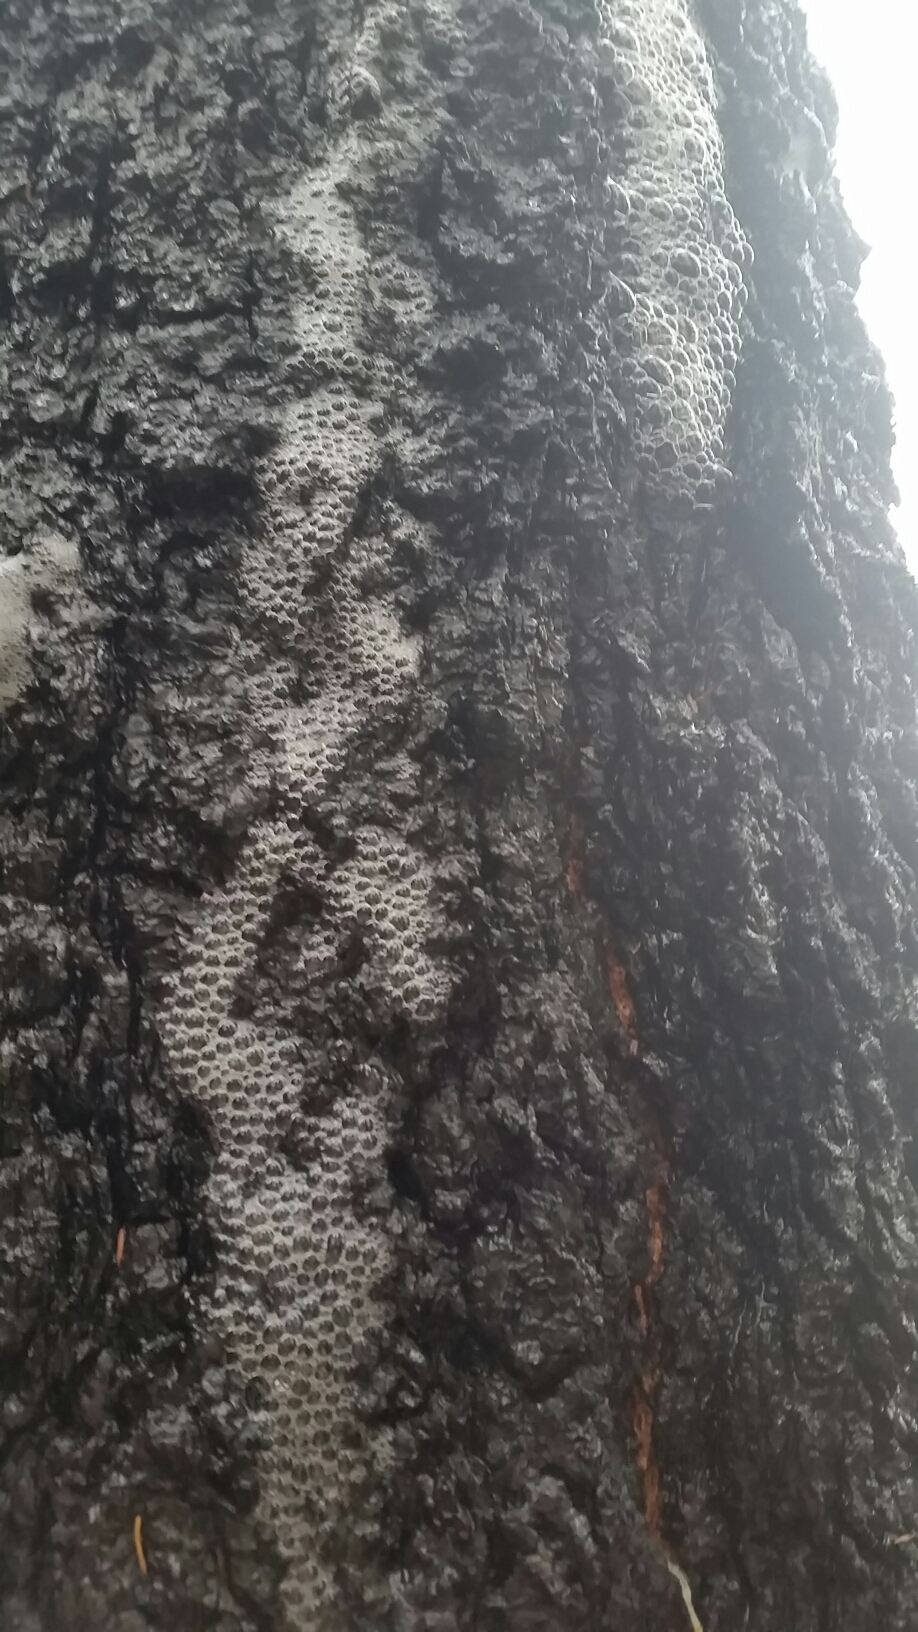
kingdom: Plantae
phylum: Tracheophyta
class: Pinopsida
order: Pinales
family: Pinaceae
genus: Pseudotsuga
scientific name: Pseudotsuga menziesii
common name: Douglas fir
